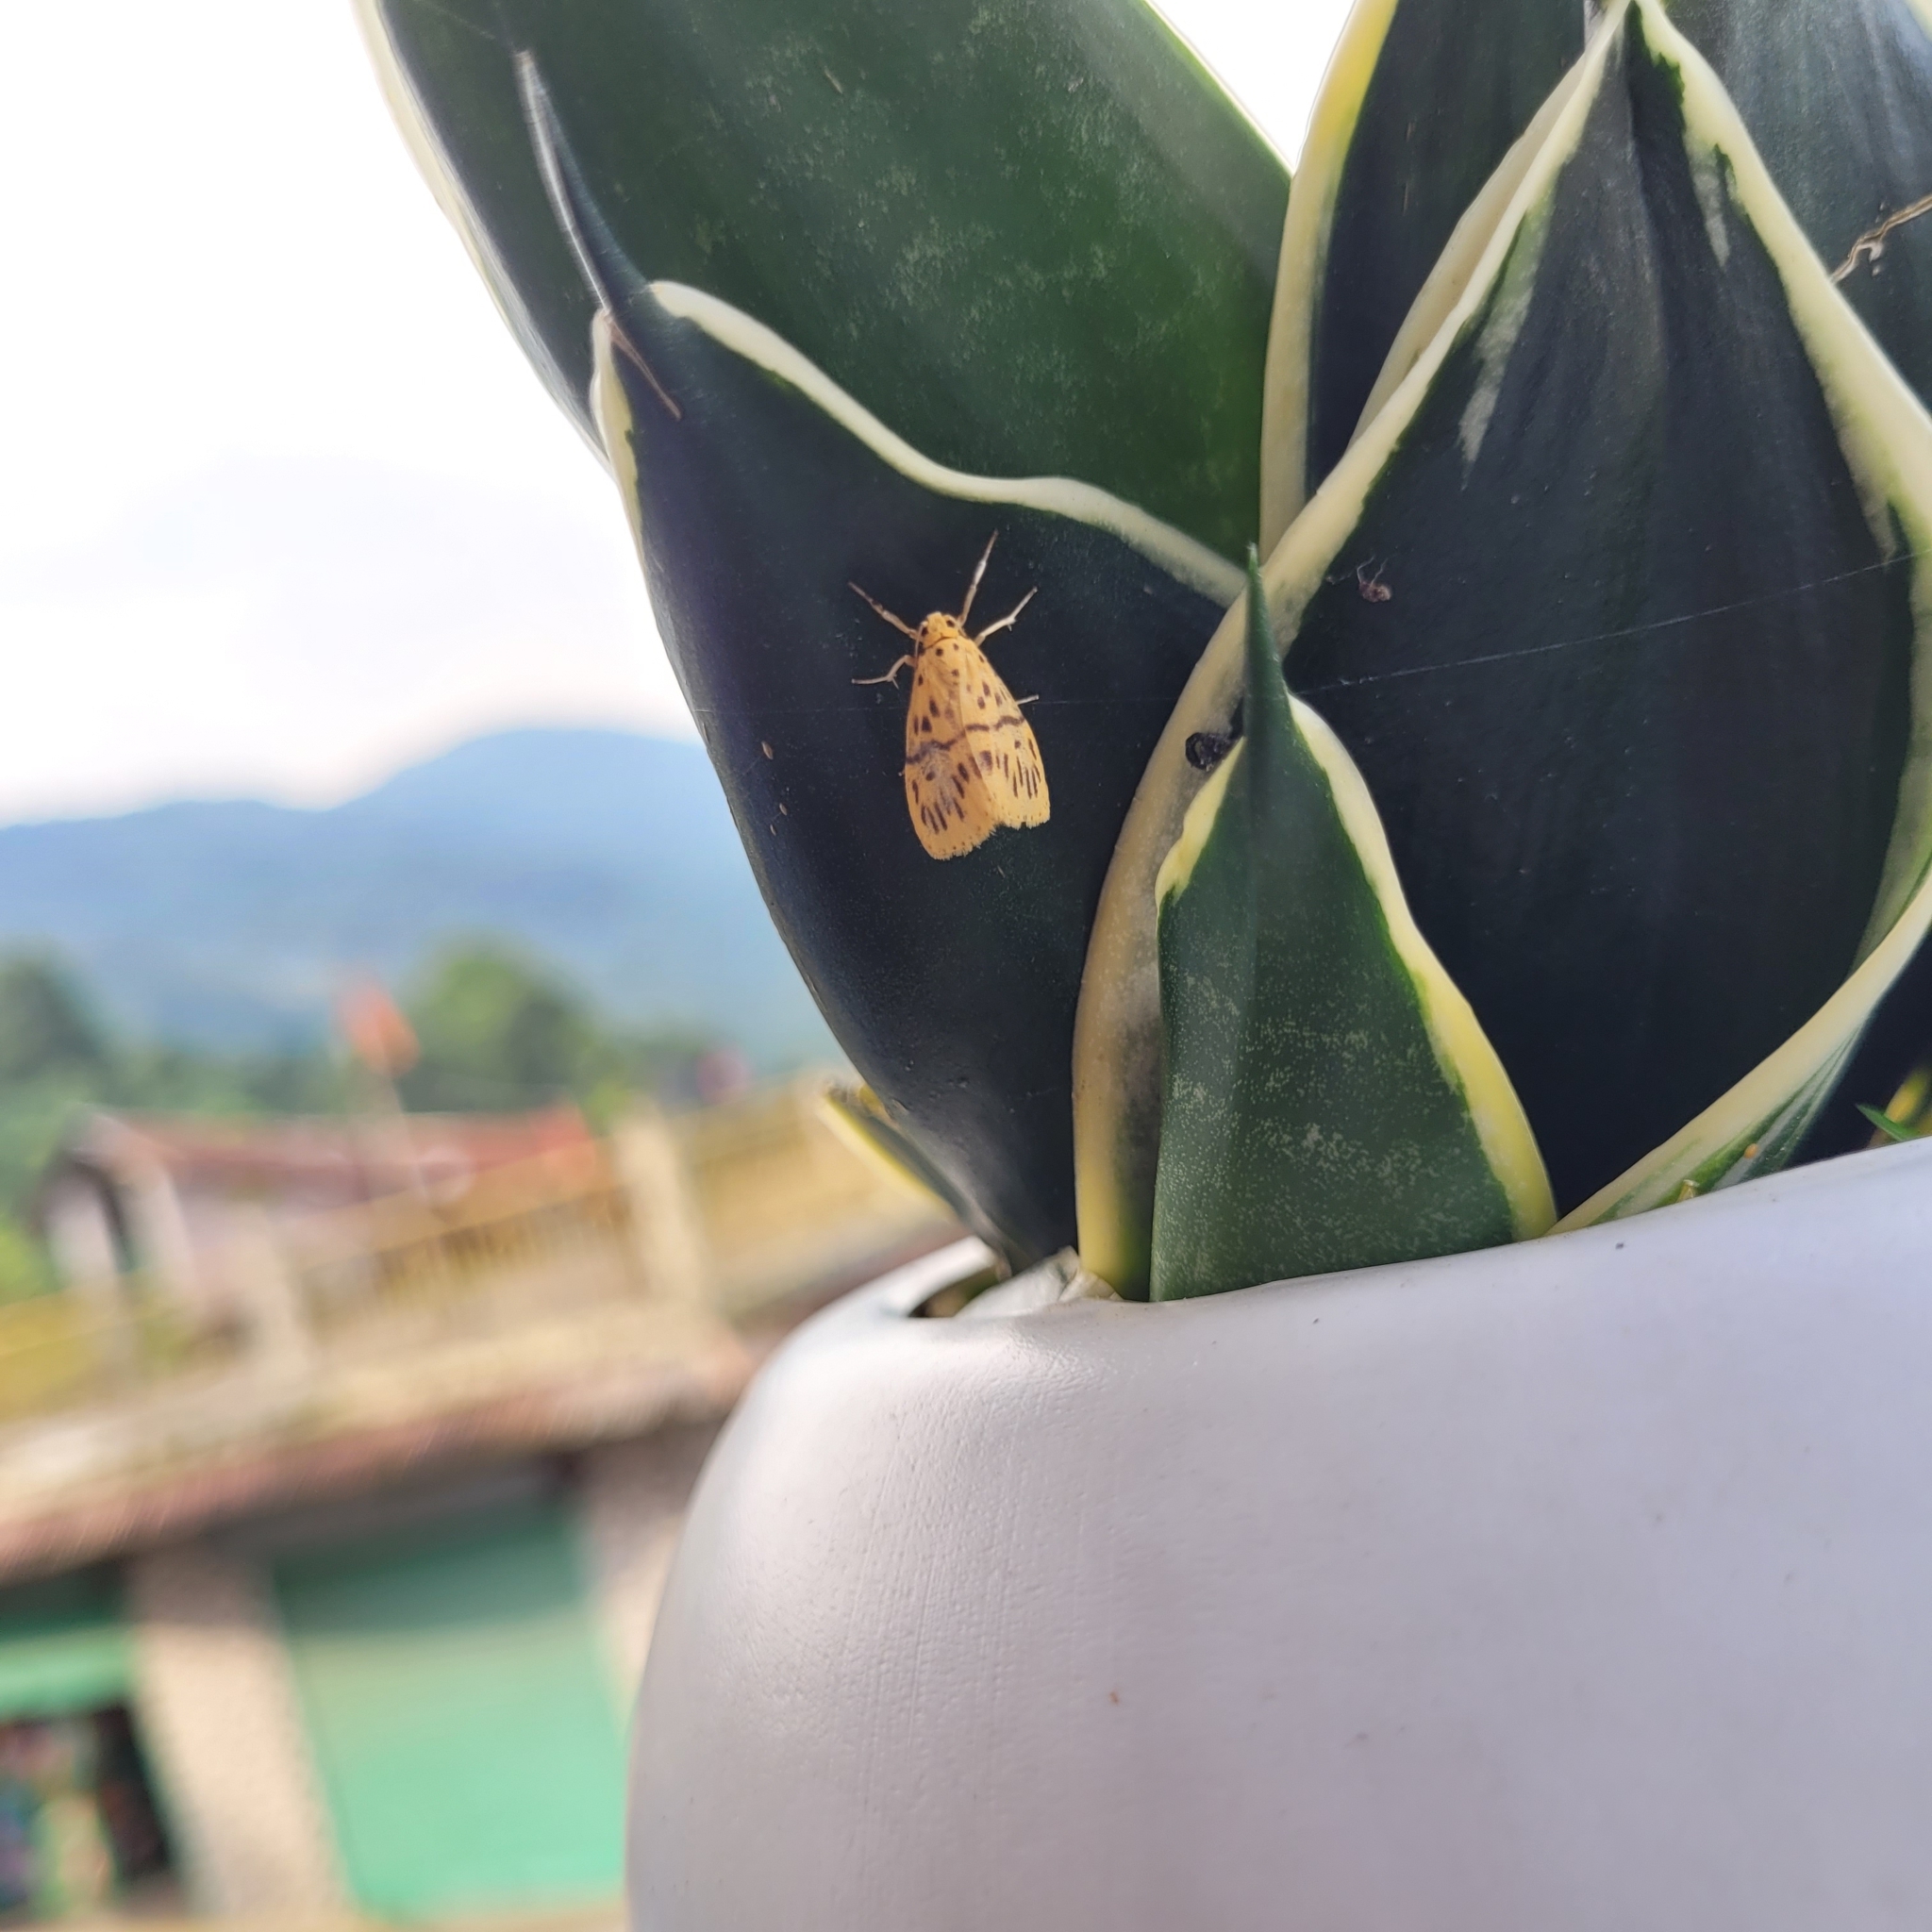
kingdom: Animalia
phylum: Arthropoda
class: Insecta
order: Lepidoptera
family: Erebidae
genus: Miltochrista
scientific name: Miltochrista producta
